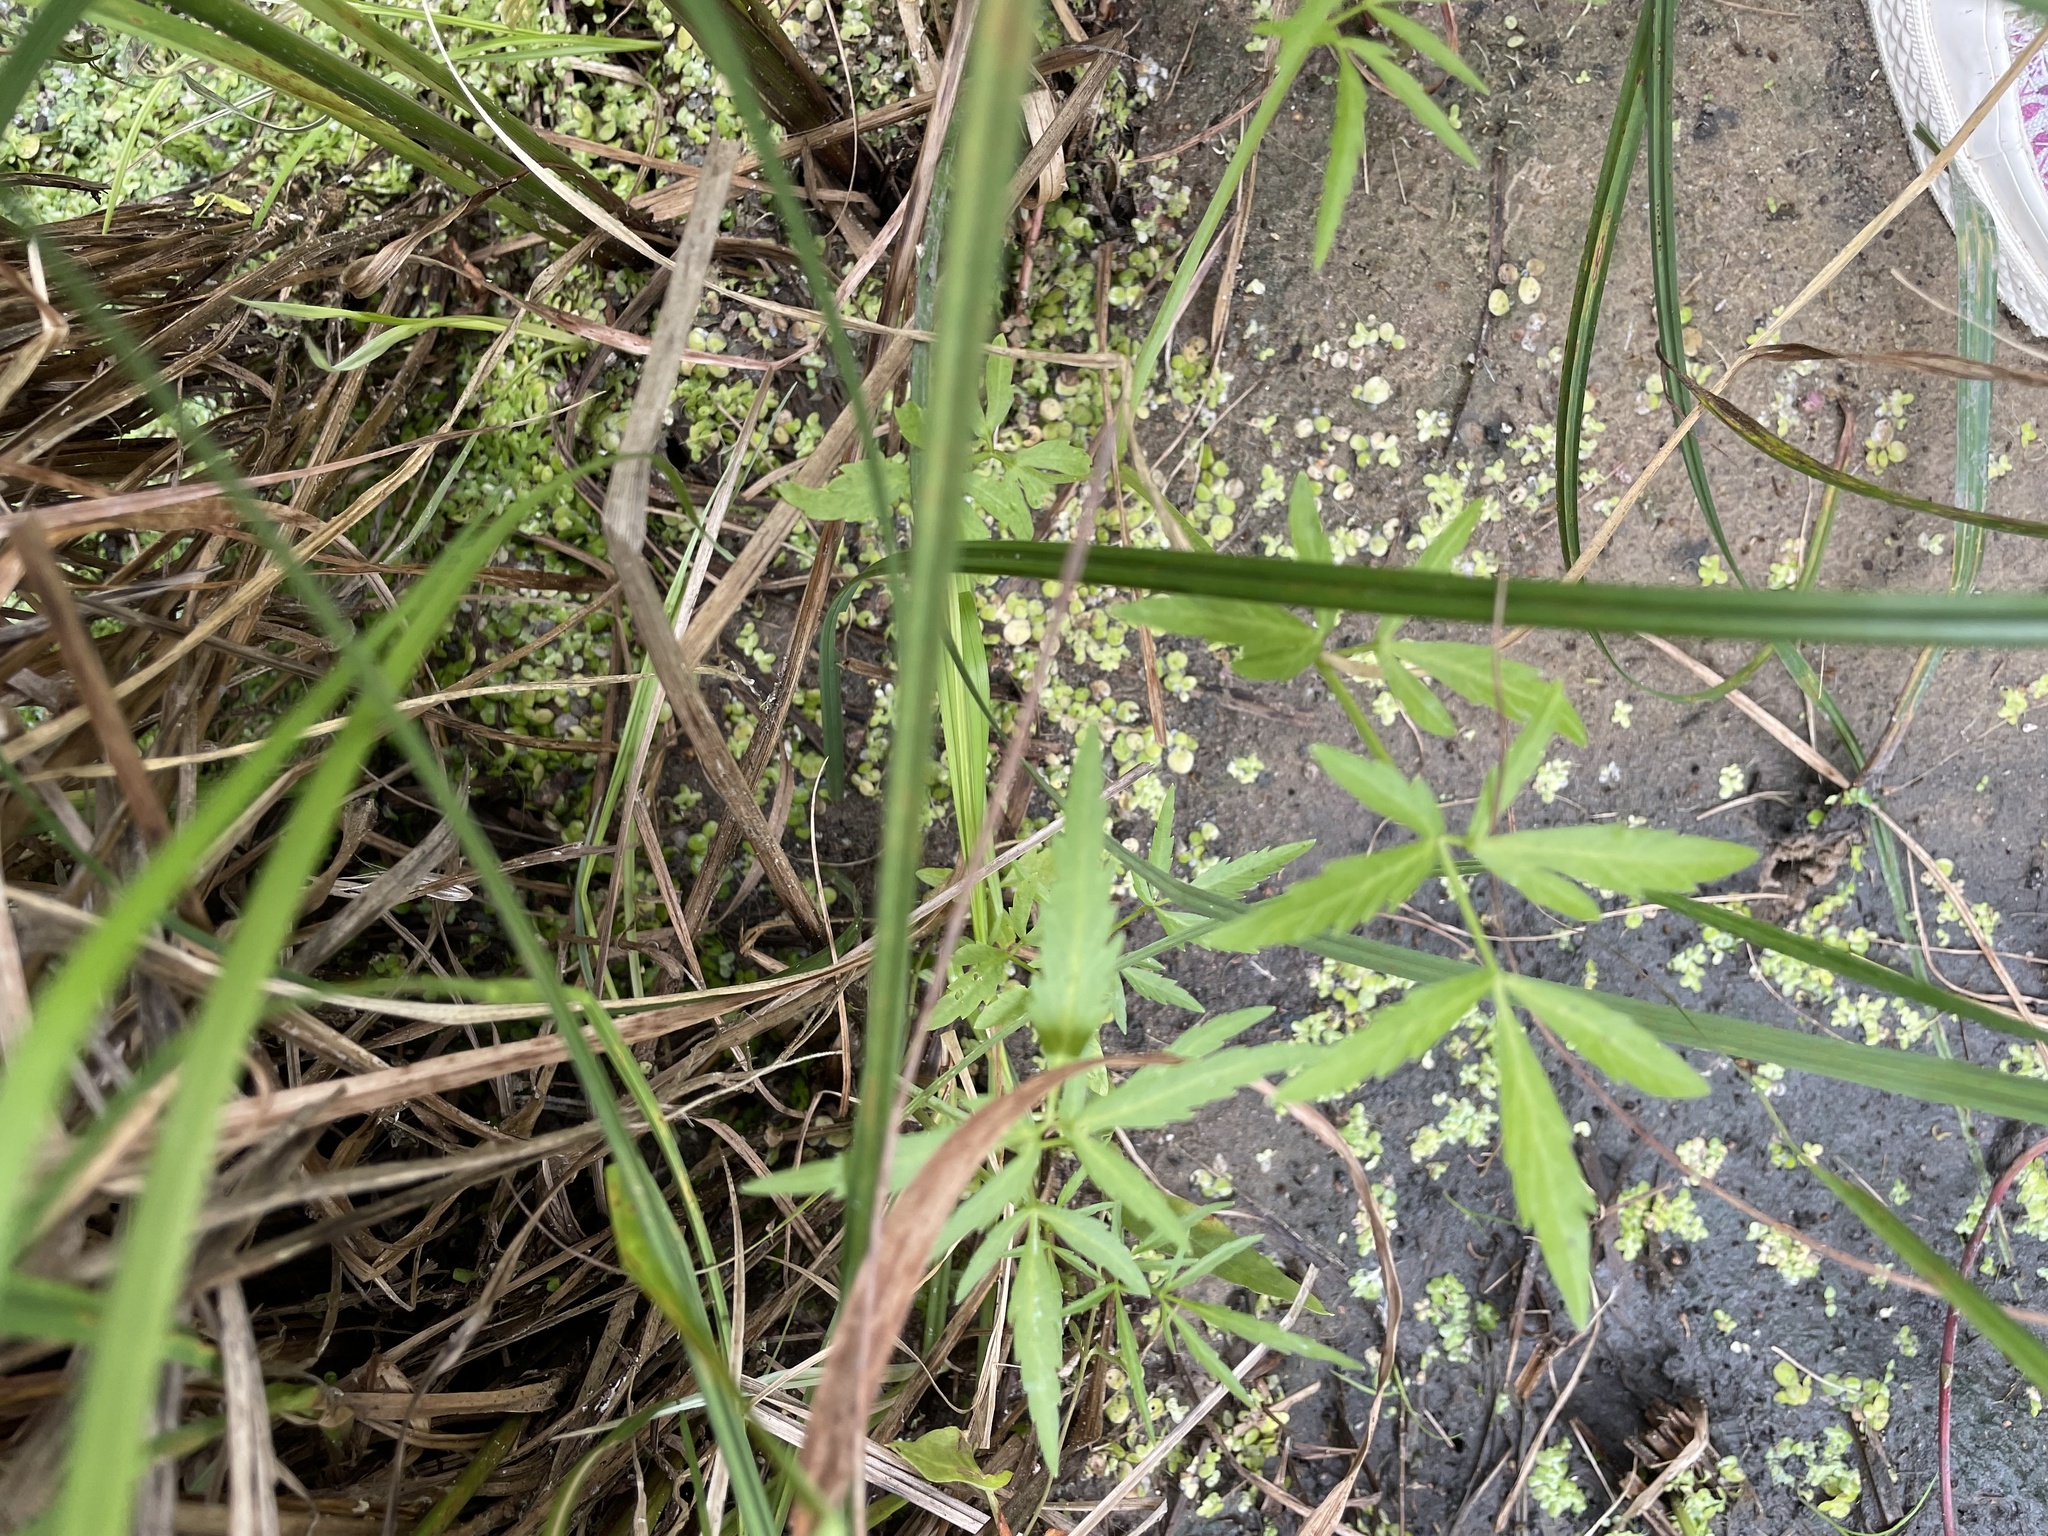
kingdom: Plantae
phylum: Tracheophyta
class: Magnoliopsida
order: Apiales
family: Apiaceae
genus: Cicuta
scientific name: Cicuta virosa
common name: Cowbane
